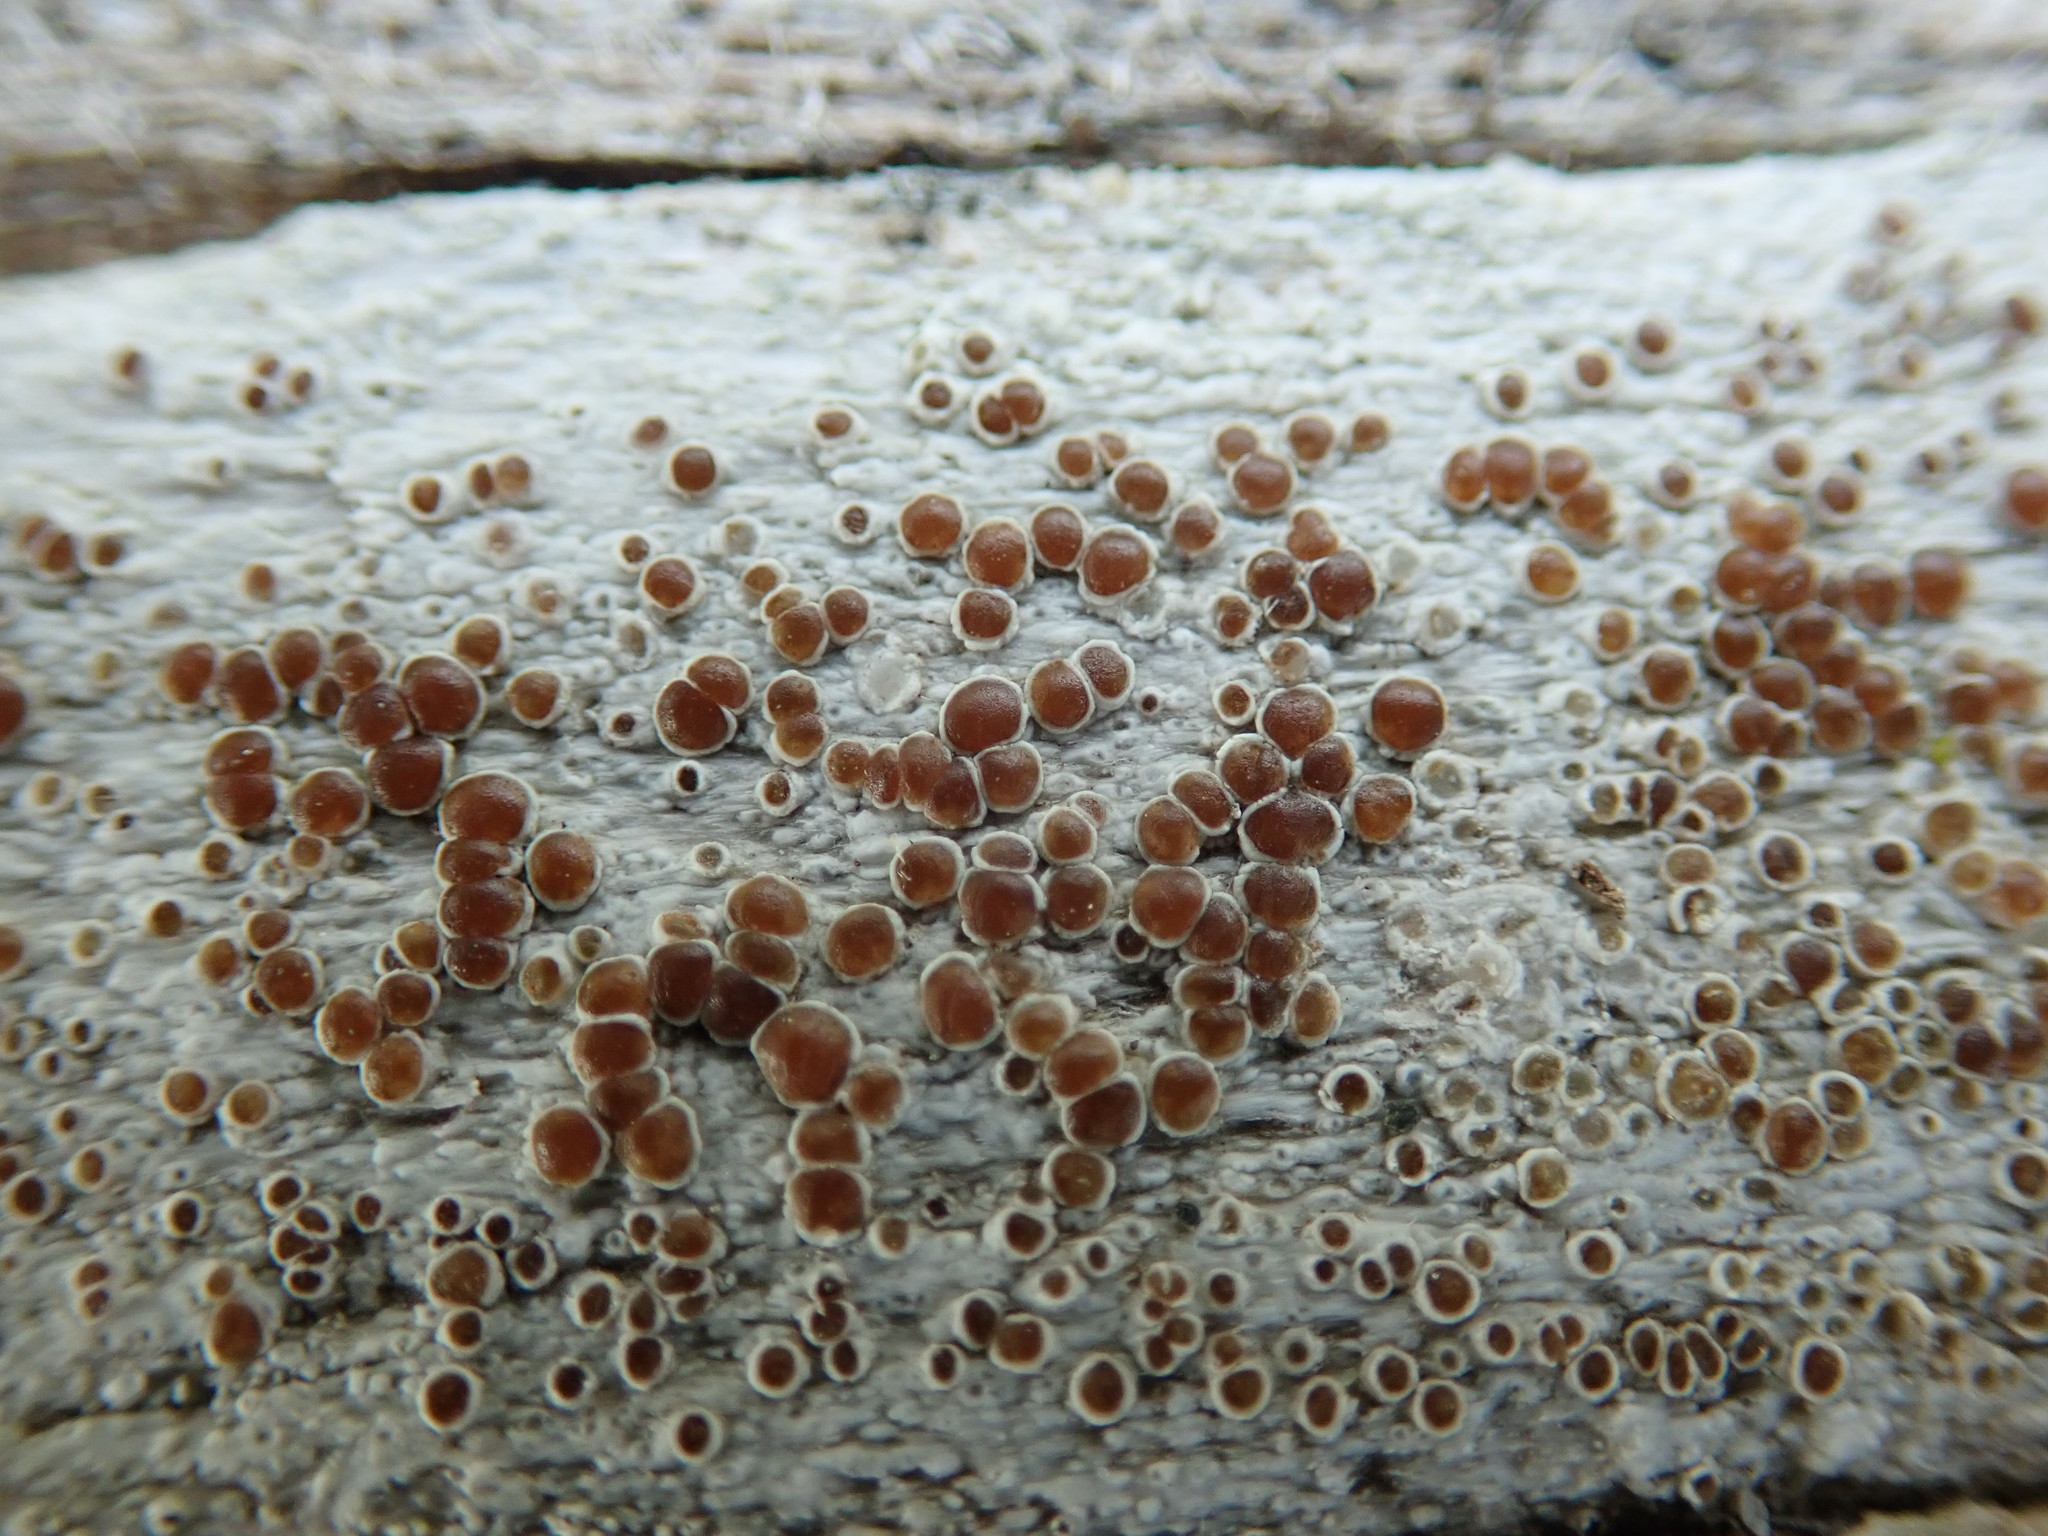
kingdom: Fungi
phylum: Ascomycota
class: Lecanoromycetes
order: Lecanorales
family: Lecanoraceae
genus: Lecanora
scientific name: Lecanora xylophila
